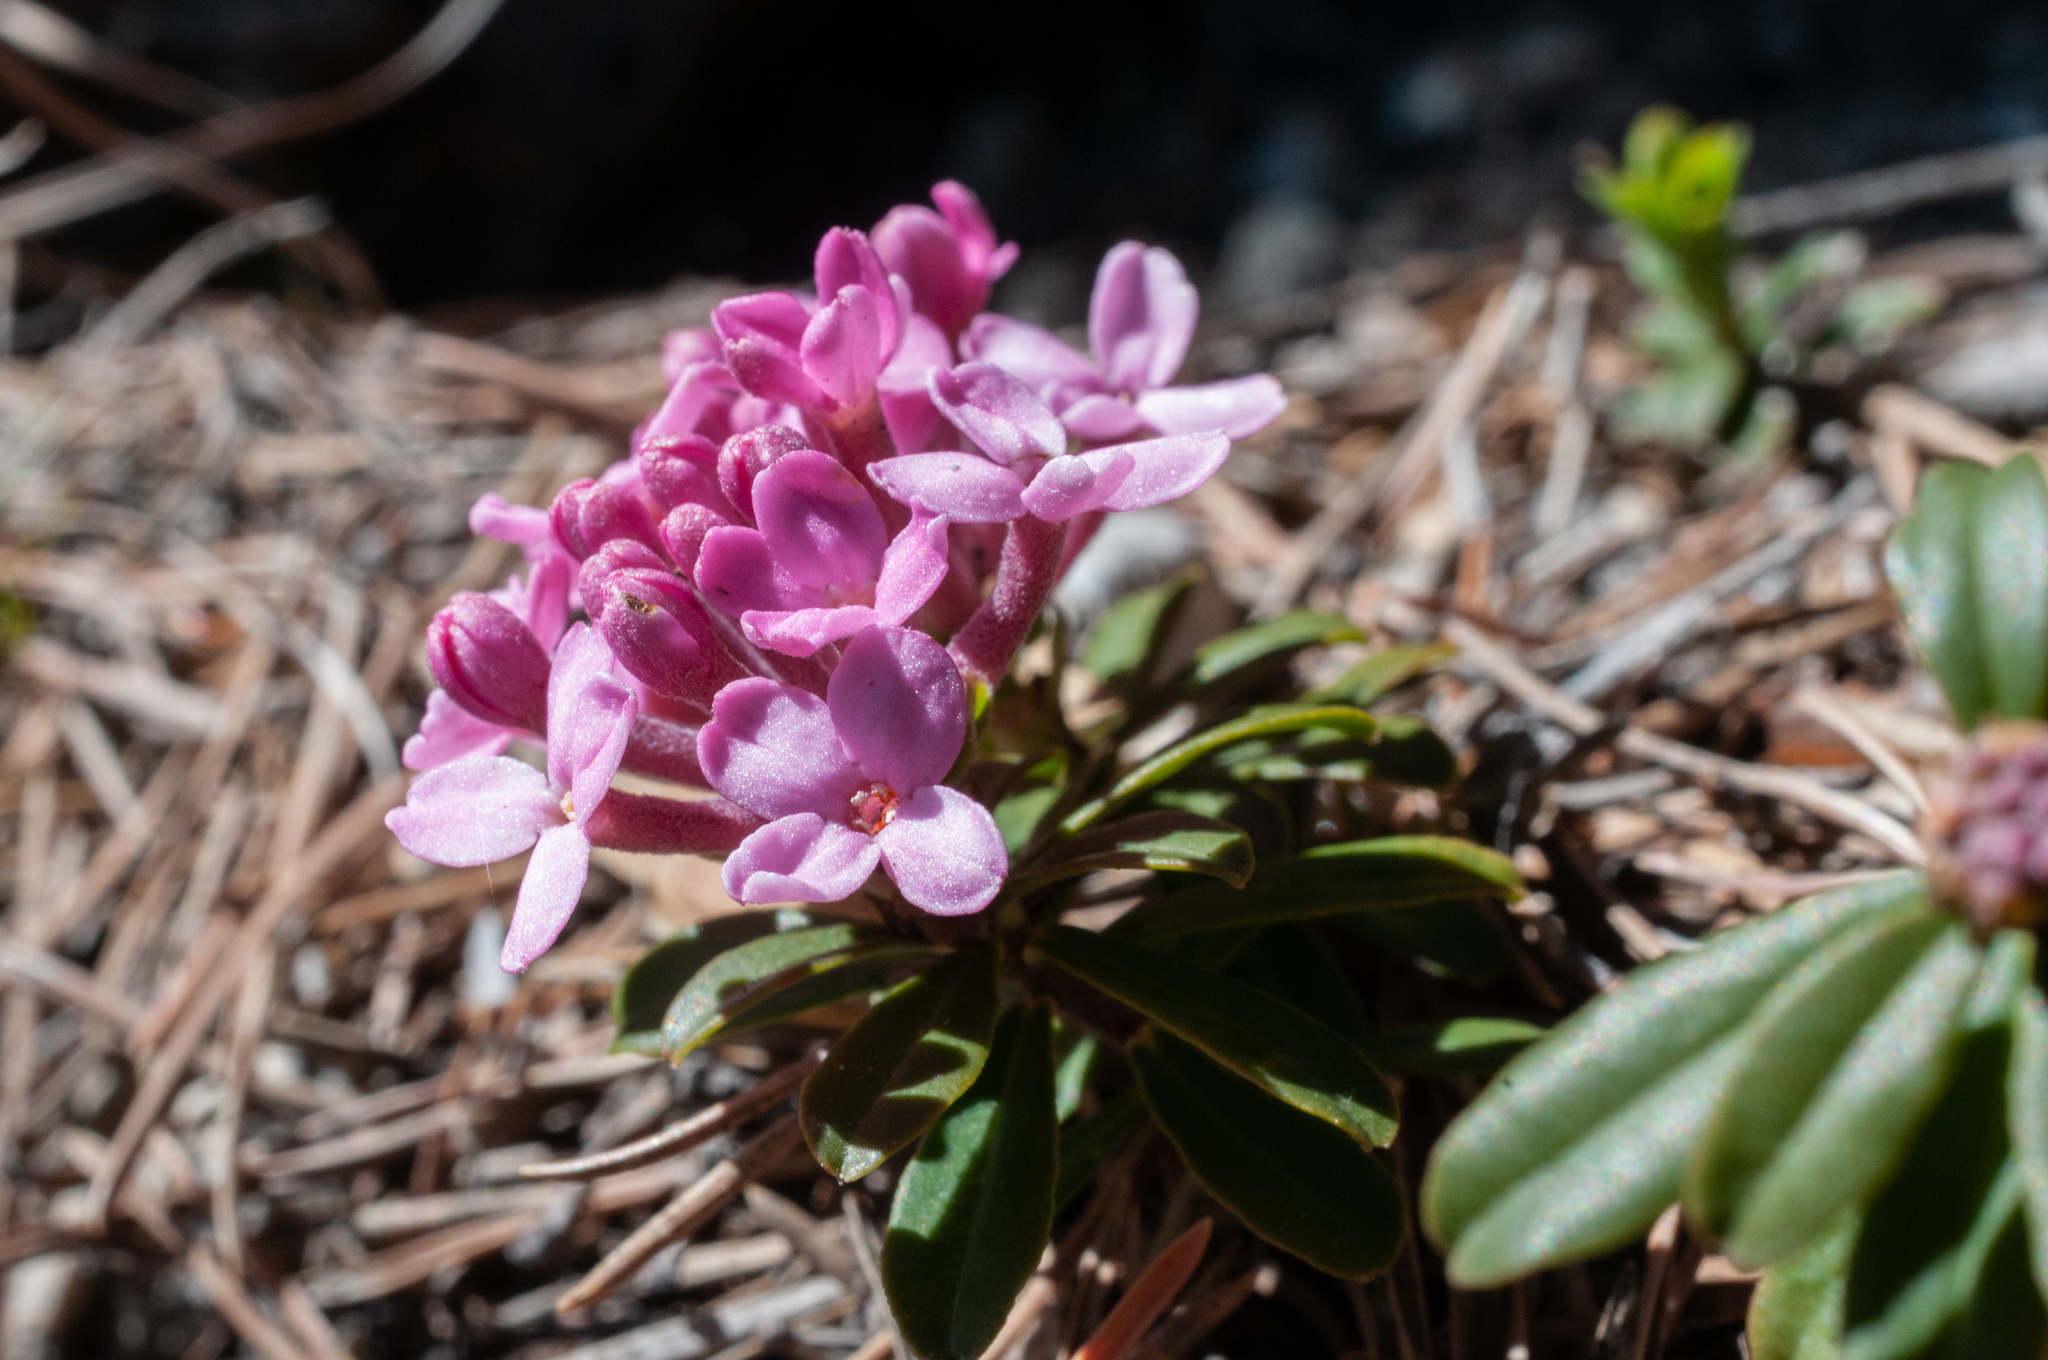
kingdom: Plantae
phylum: Tracheophyta
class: Magnoliopsida
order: Malvales
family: Thymelaeaceae
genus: Daphne
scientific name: Daphne cneorum
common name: Garland-flower
